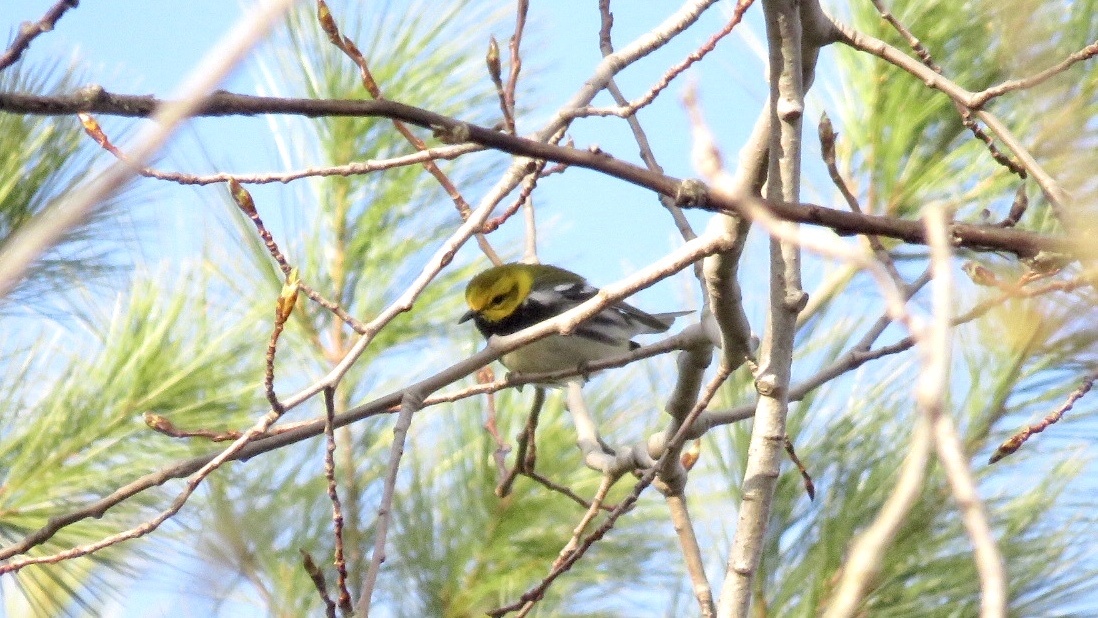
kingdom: Animalia
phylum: Chordata
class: Aves
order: Passeriformes
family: Parulidae
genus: Setophaga
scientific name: Setophaga virens
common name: Black-throated green warbler
